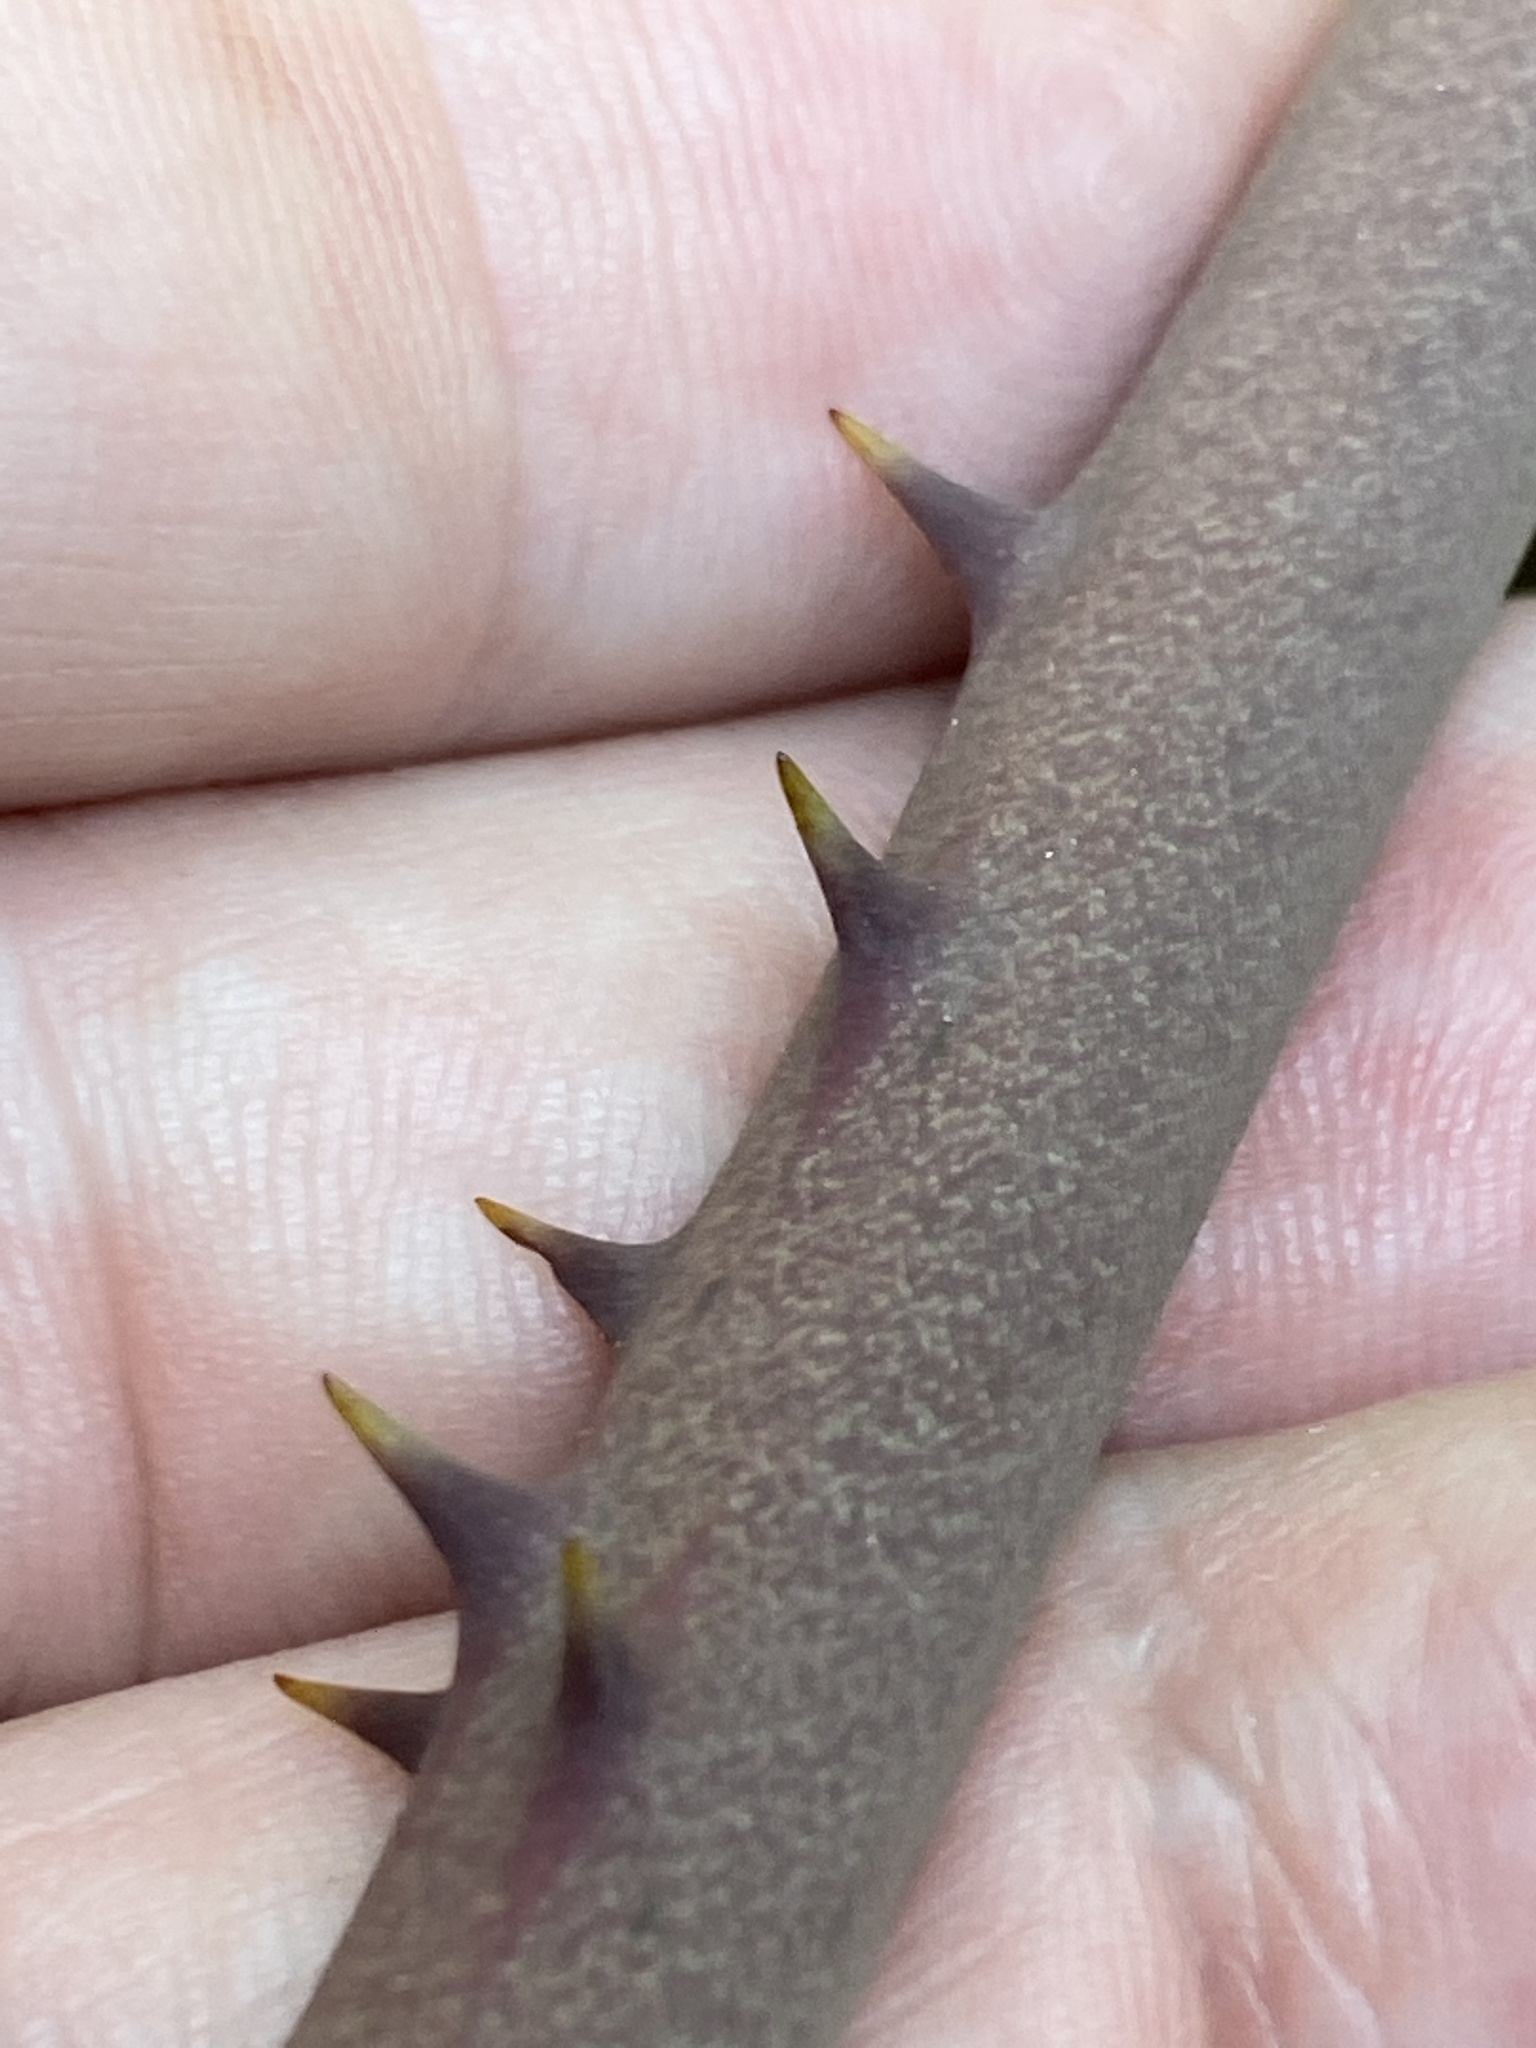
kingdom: Plantae
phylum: Tracheophyta
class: Liliopsida
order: Liliales
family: Smilacaceae
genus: Smilax
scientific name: Smilax auriculata
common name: Wild bamboo
